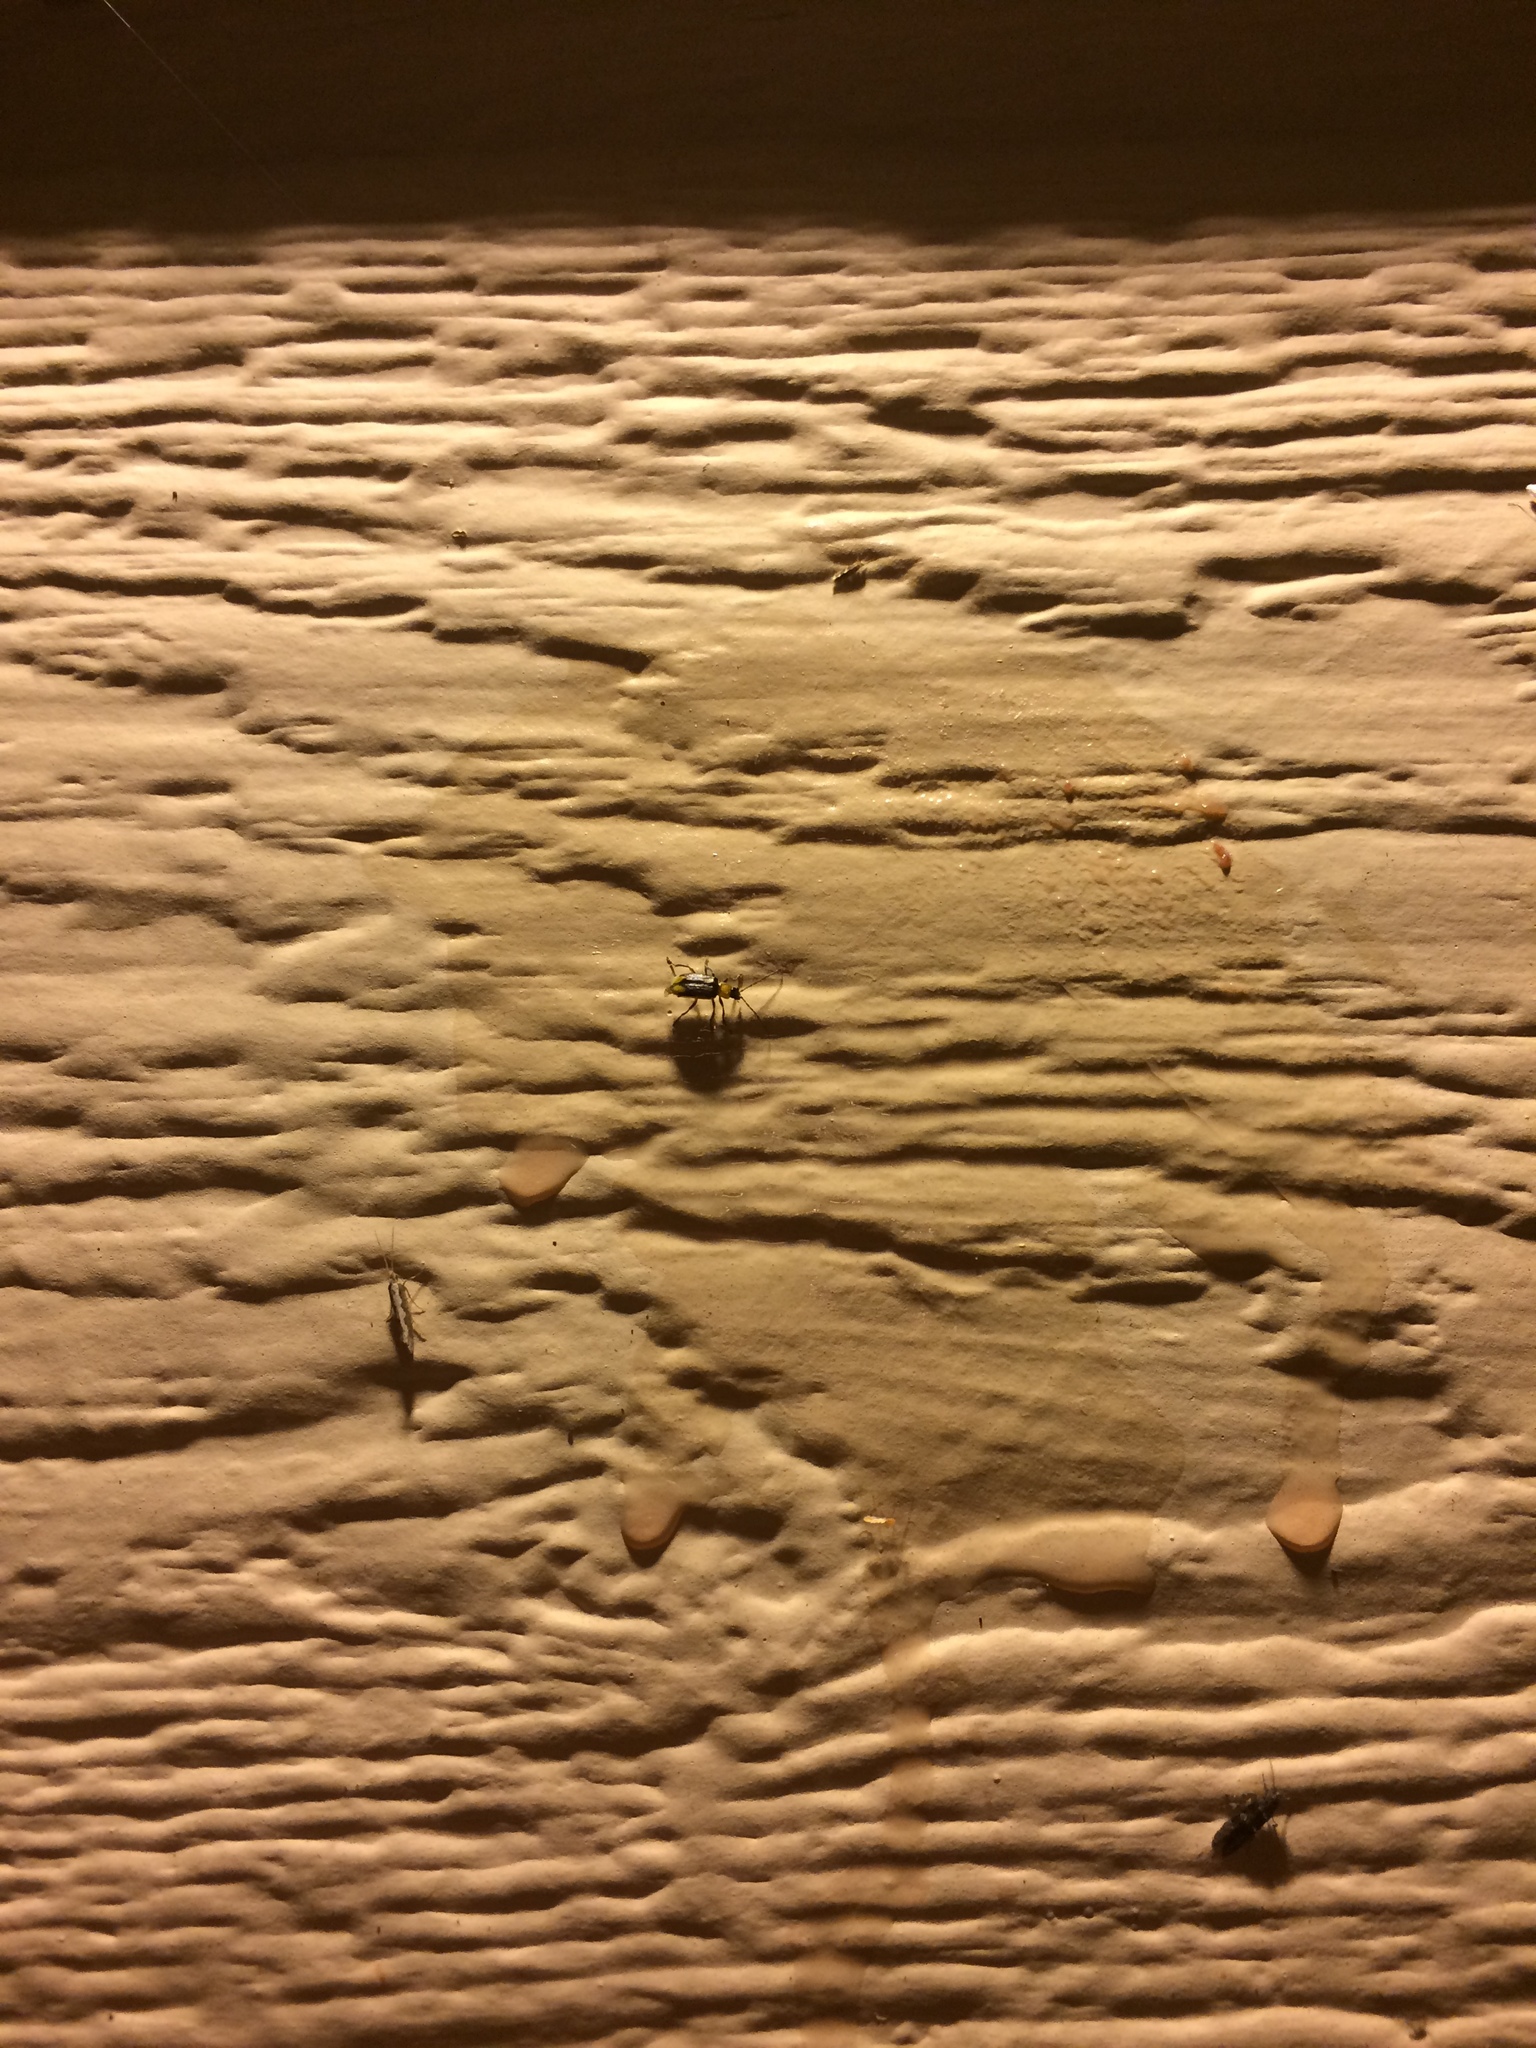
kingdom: Animalia
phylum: Arthropoda
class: Insecta
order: Coleoptera
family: Chrysomelidae
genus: Diabrotica
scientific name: Diabrotica virgifera
